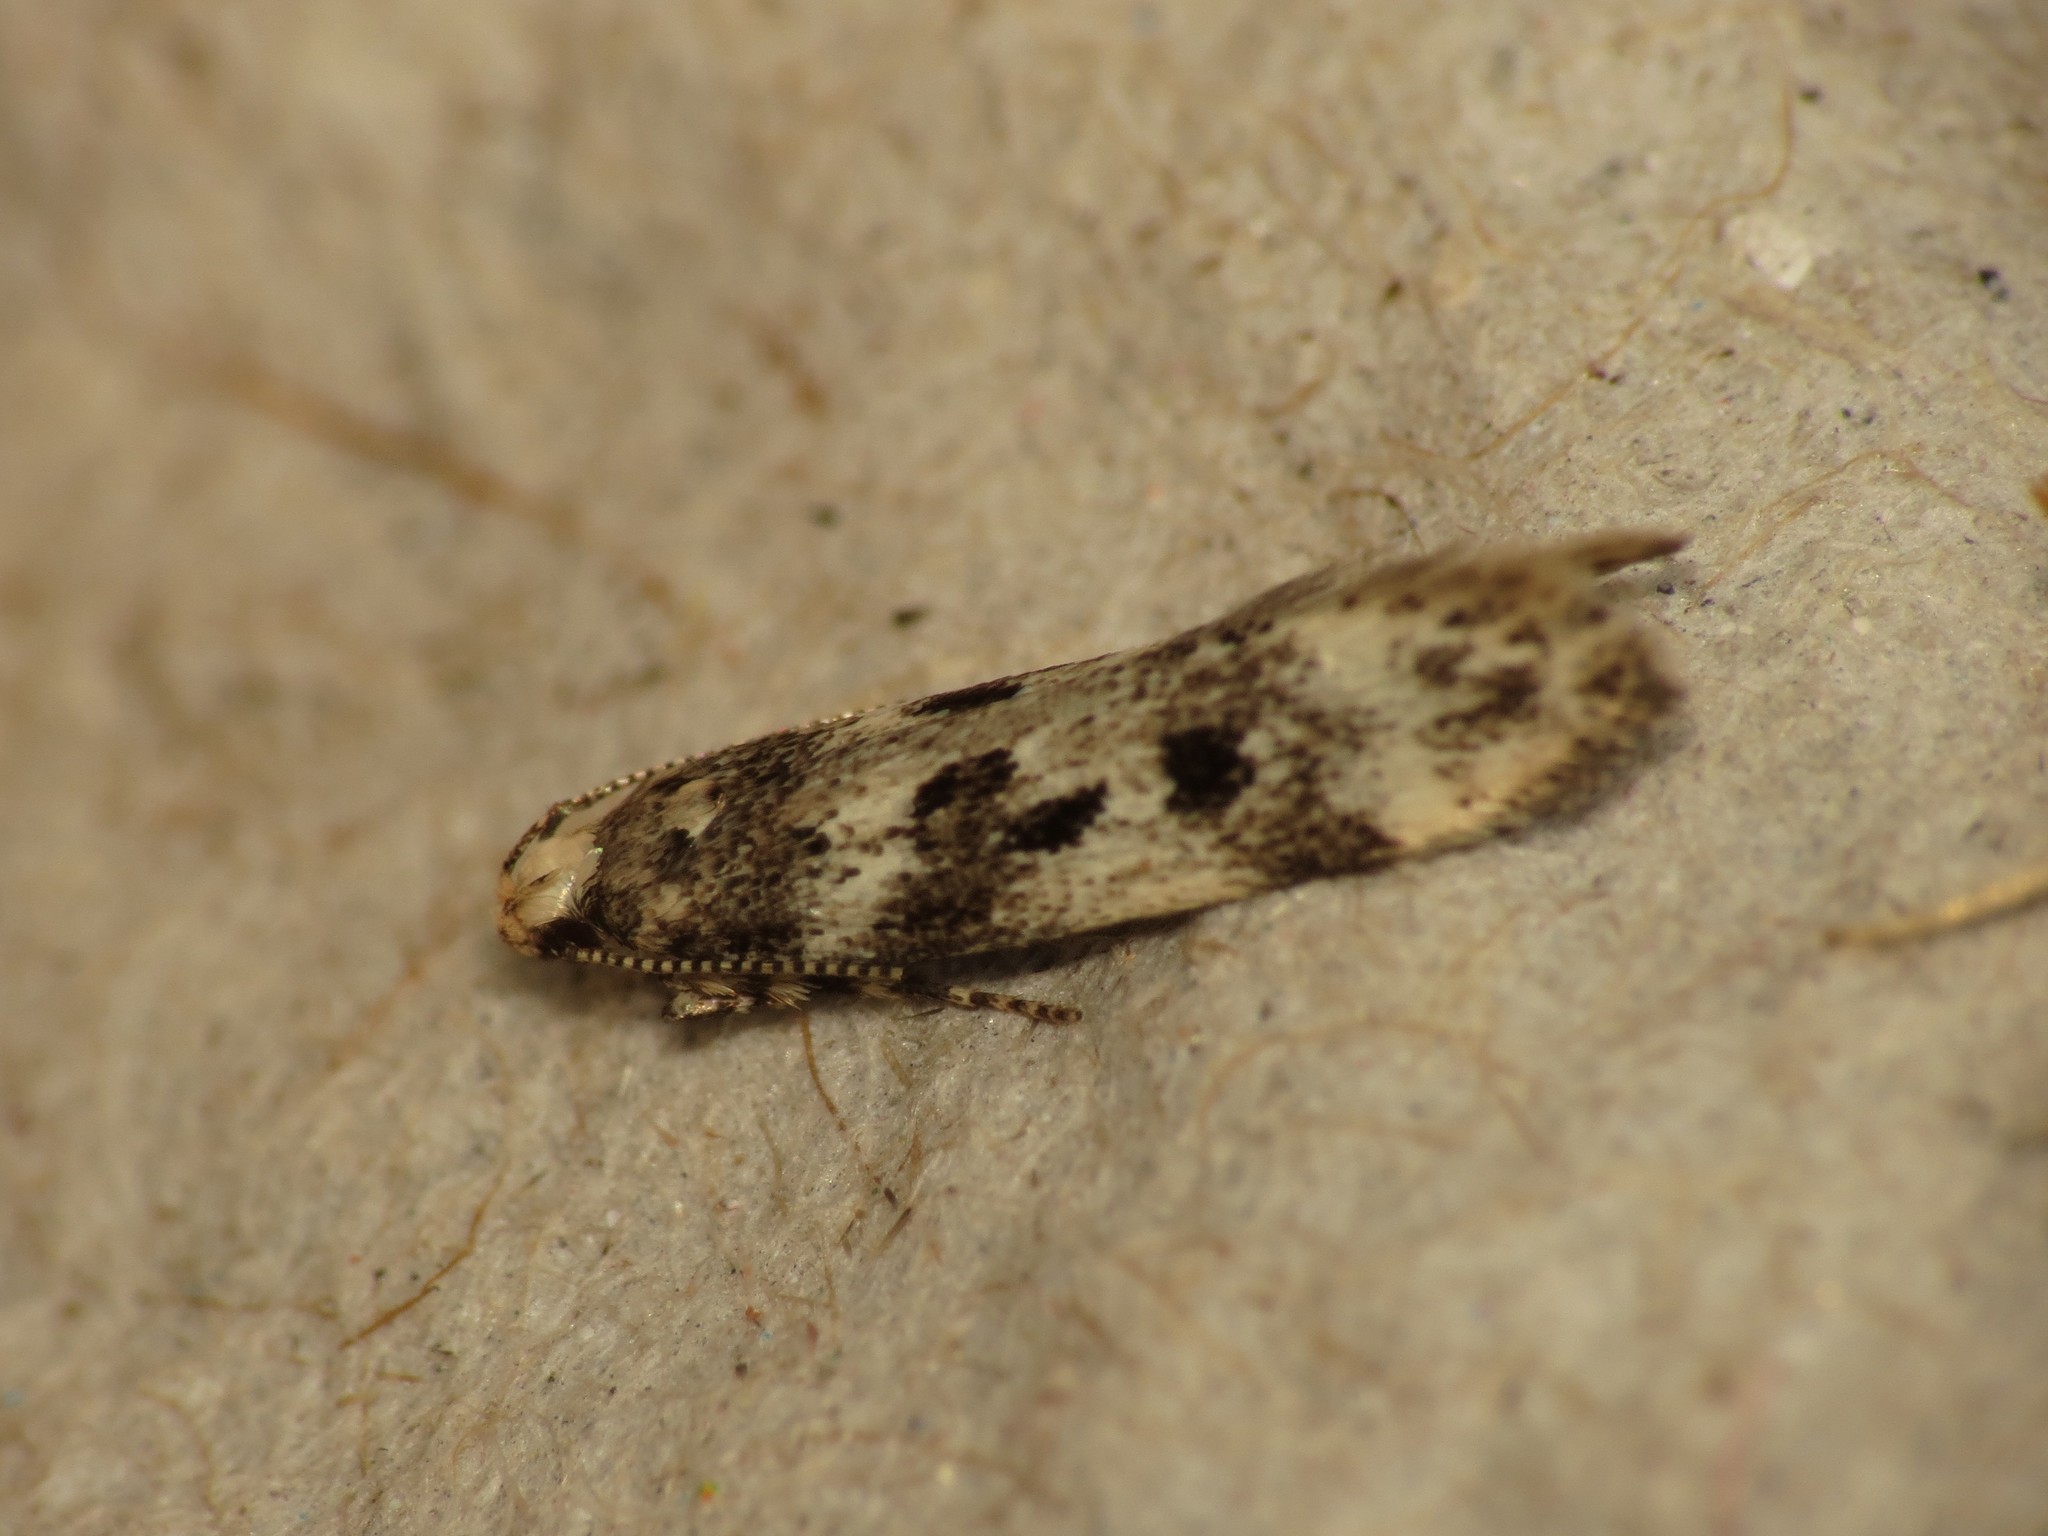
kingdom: Animalia
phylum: Arthropoda
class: Insecta
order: Lepidoptera
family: Gelechiidae
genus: Chionodes
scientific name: Chionodes electella
